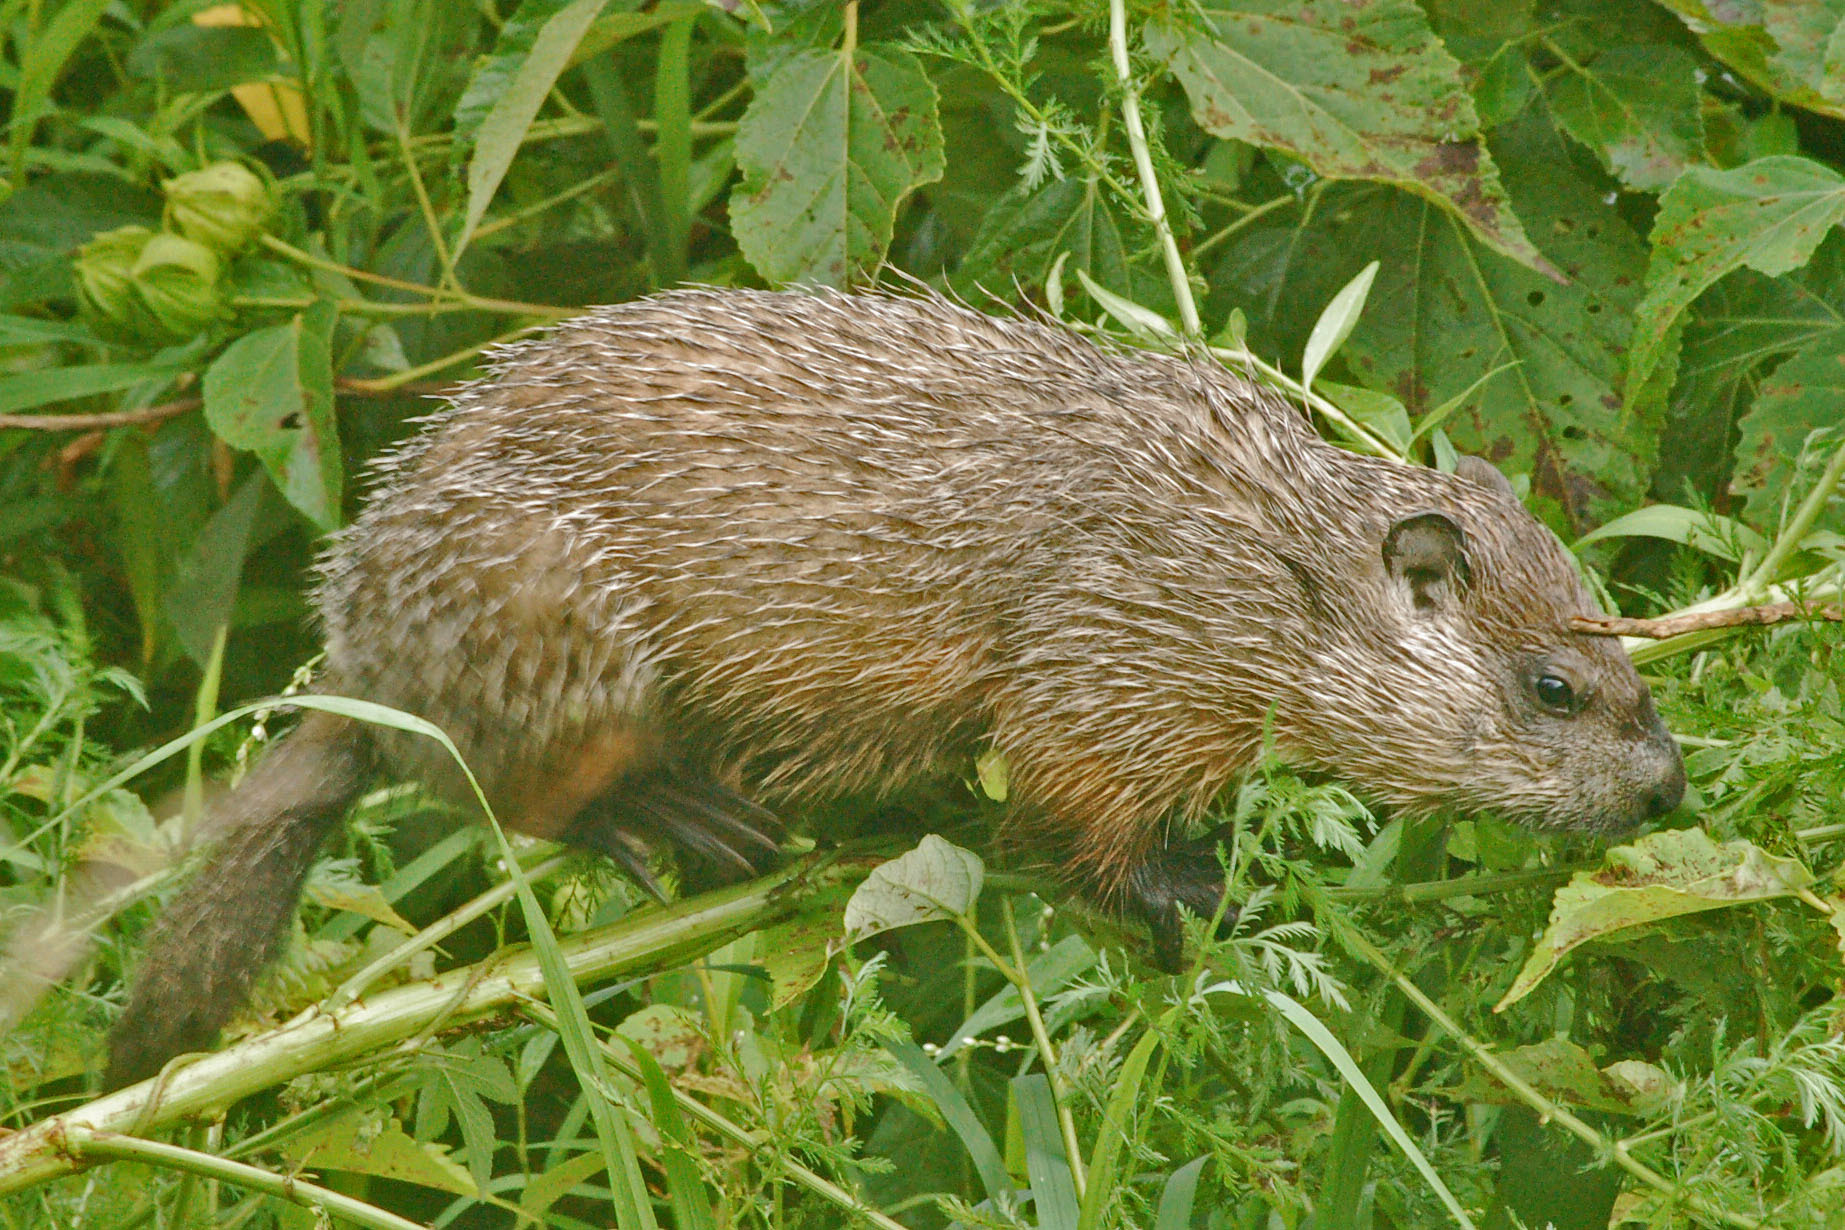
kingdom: Animalia
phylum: Chordata
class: Mammalia
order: Rodentia
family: Sciuridae
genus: Marmota
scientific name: Marmota monax
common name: Groundhog
